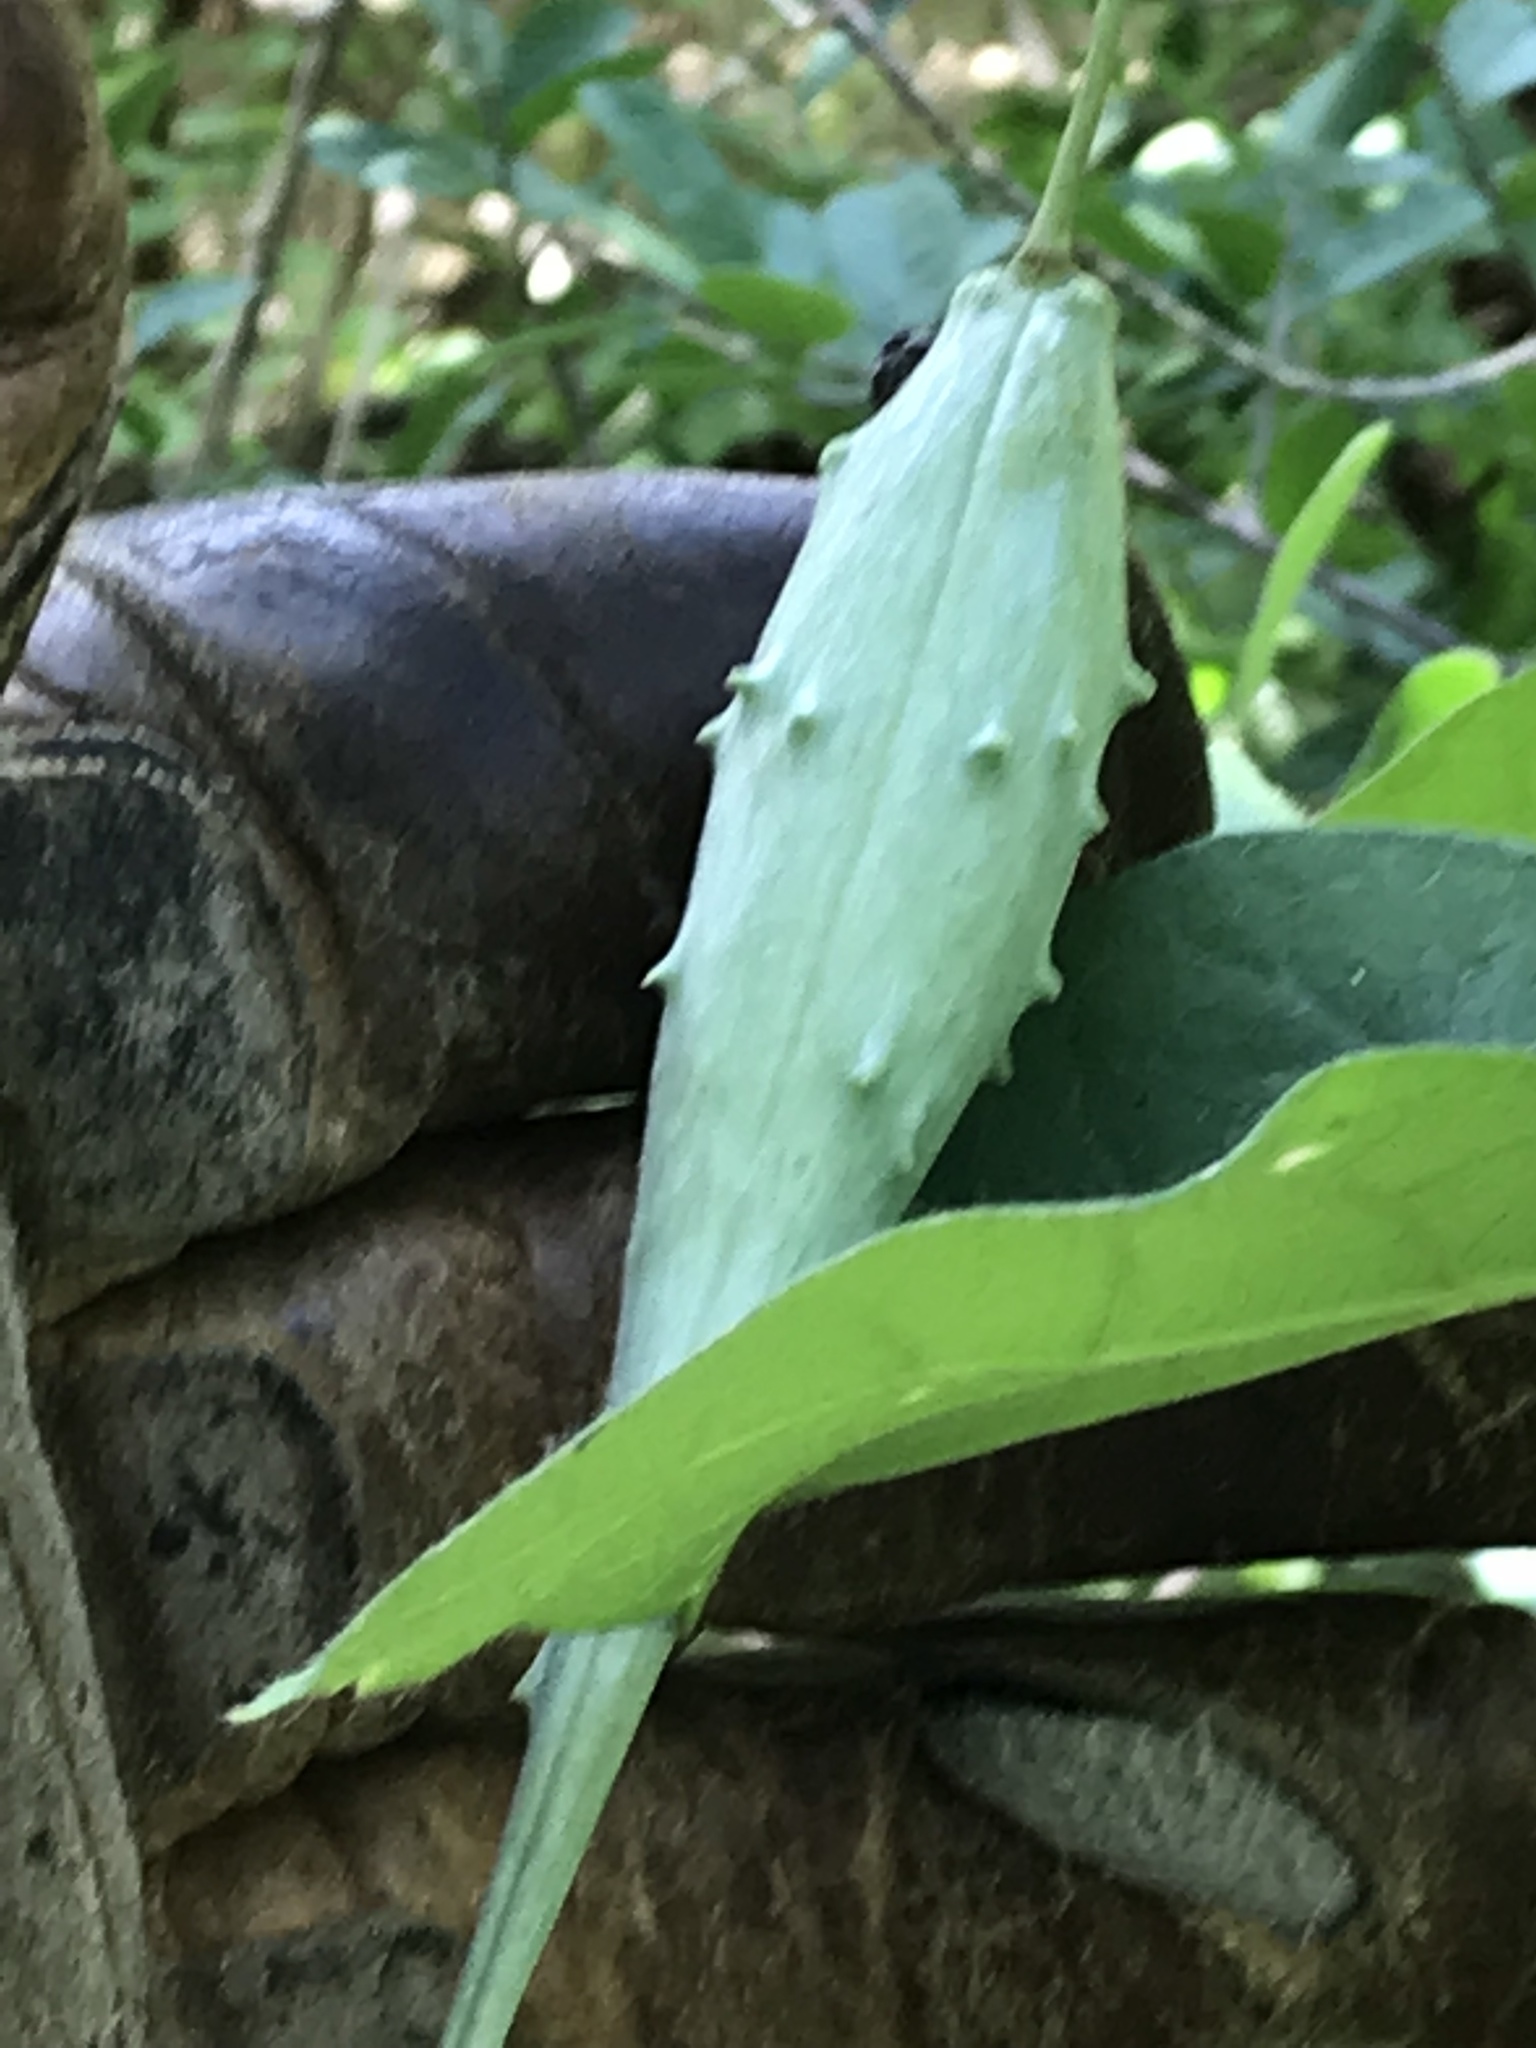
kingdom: Plantae
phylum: Tracheophyta
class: Magnoliopsida
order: Gentianales
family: Apocynaceae
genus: Dictyanthus
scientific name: Dictyanthus reticulatus
